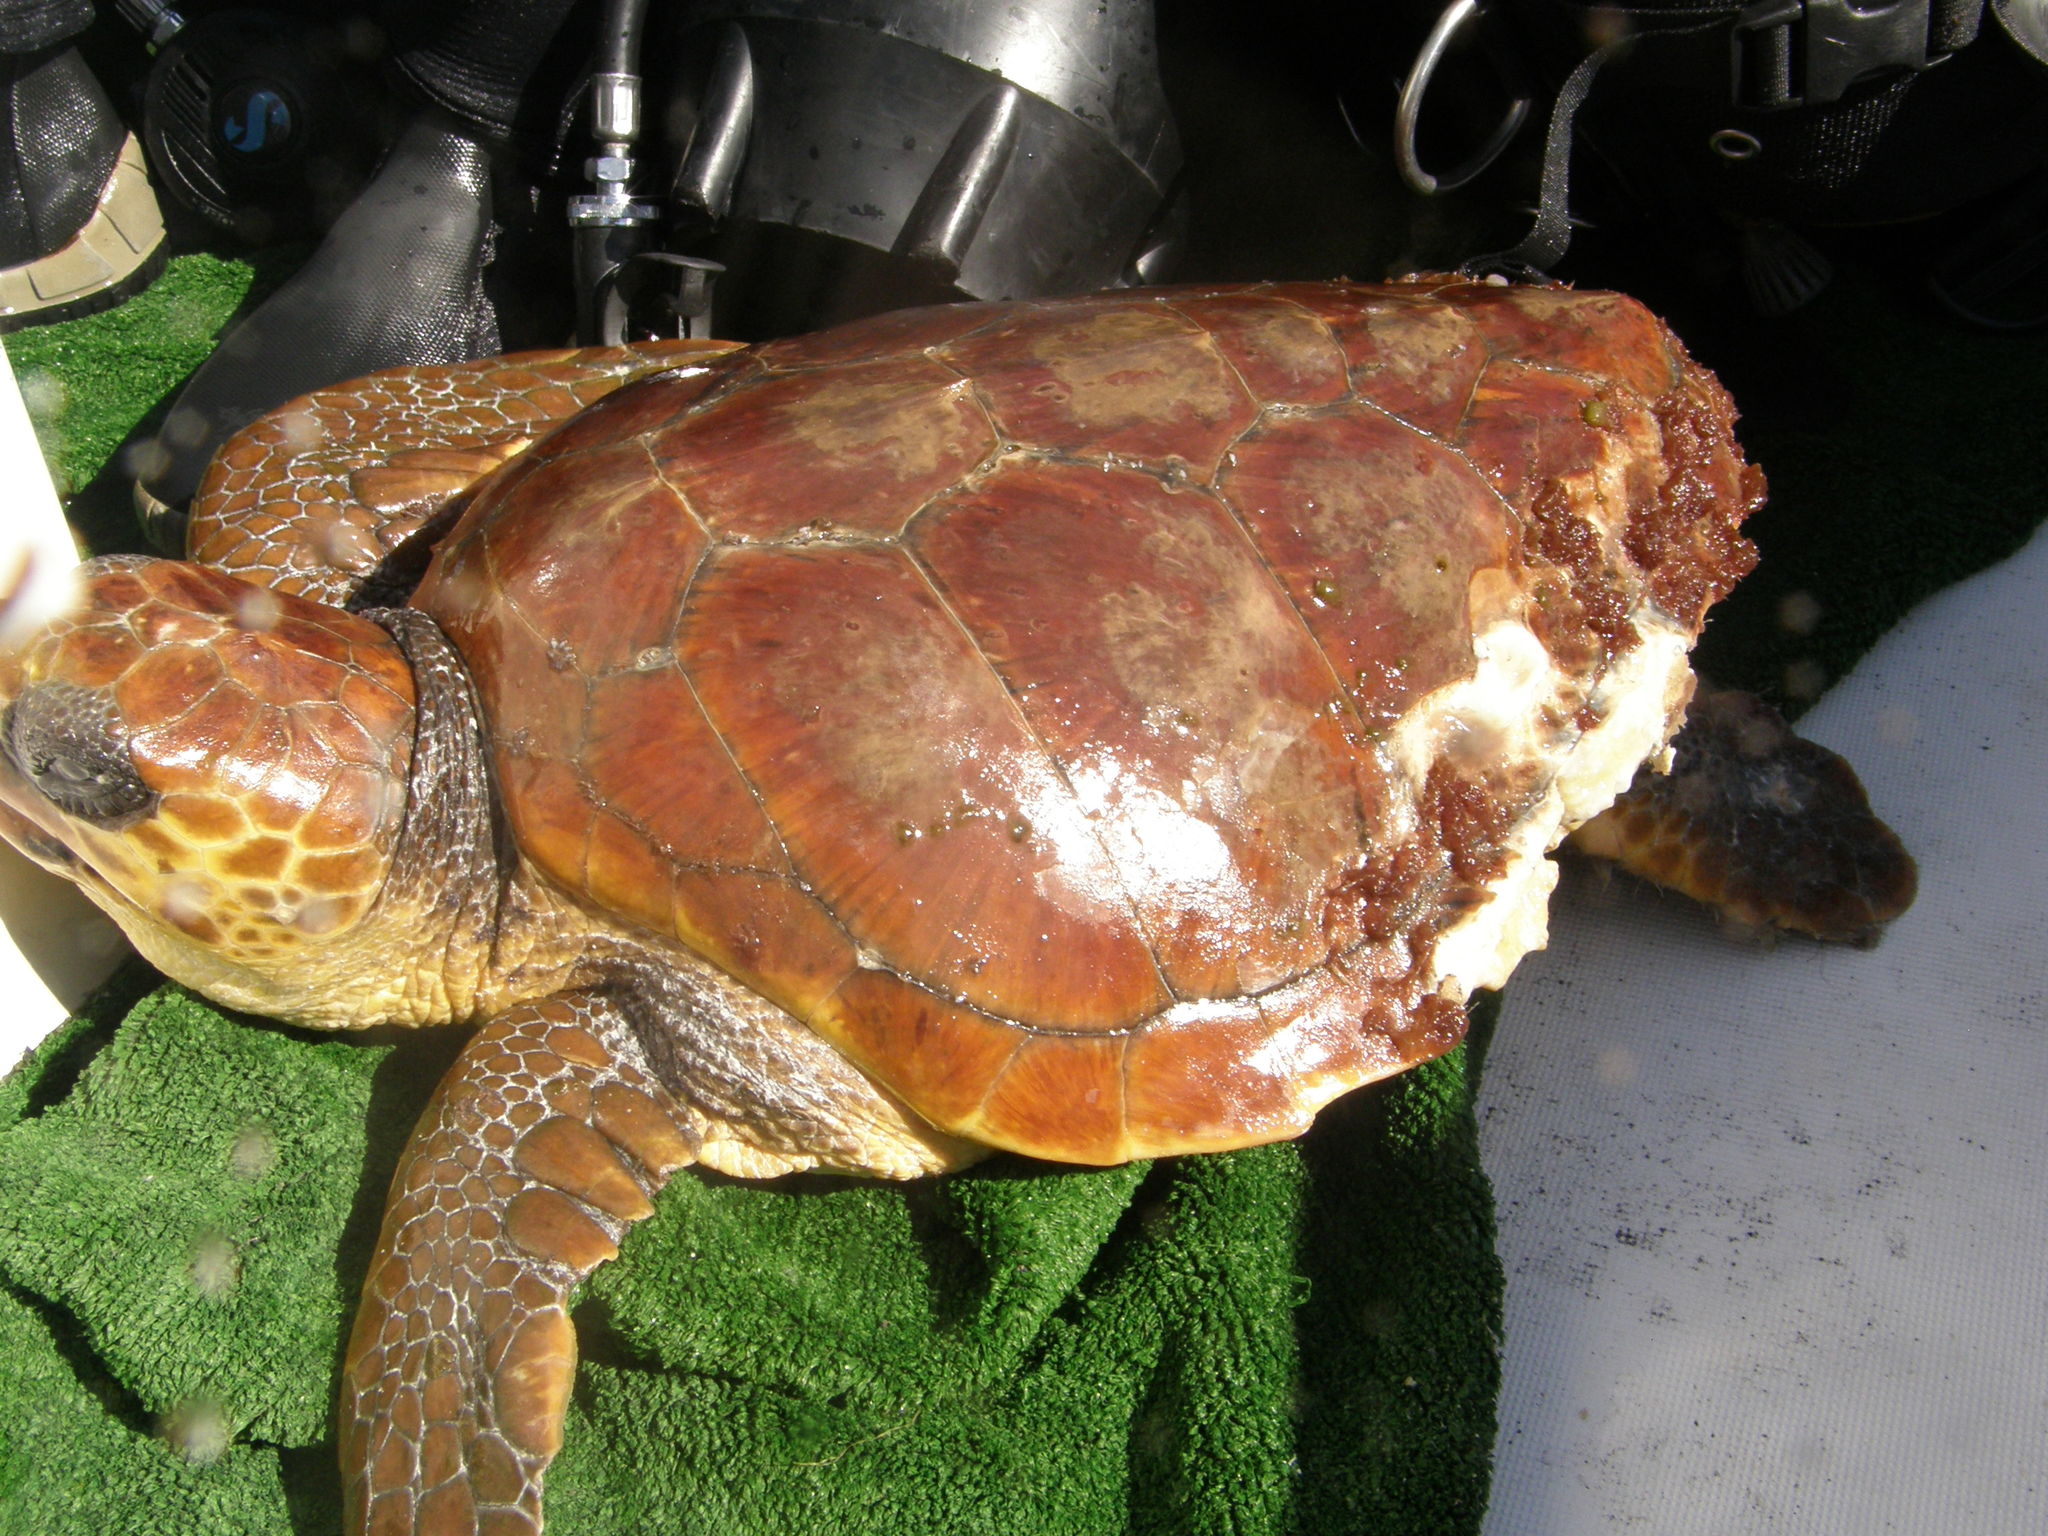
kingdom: Animalia
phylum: Chordata
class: Testudines
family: Cheloniidae
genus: Caretta
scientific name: Caretta caretta
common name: Loggerhead sea turtle
